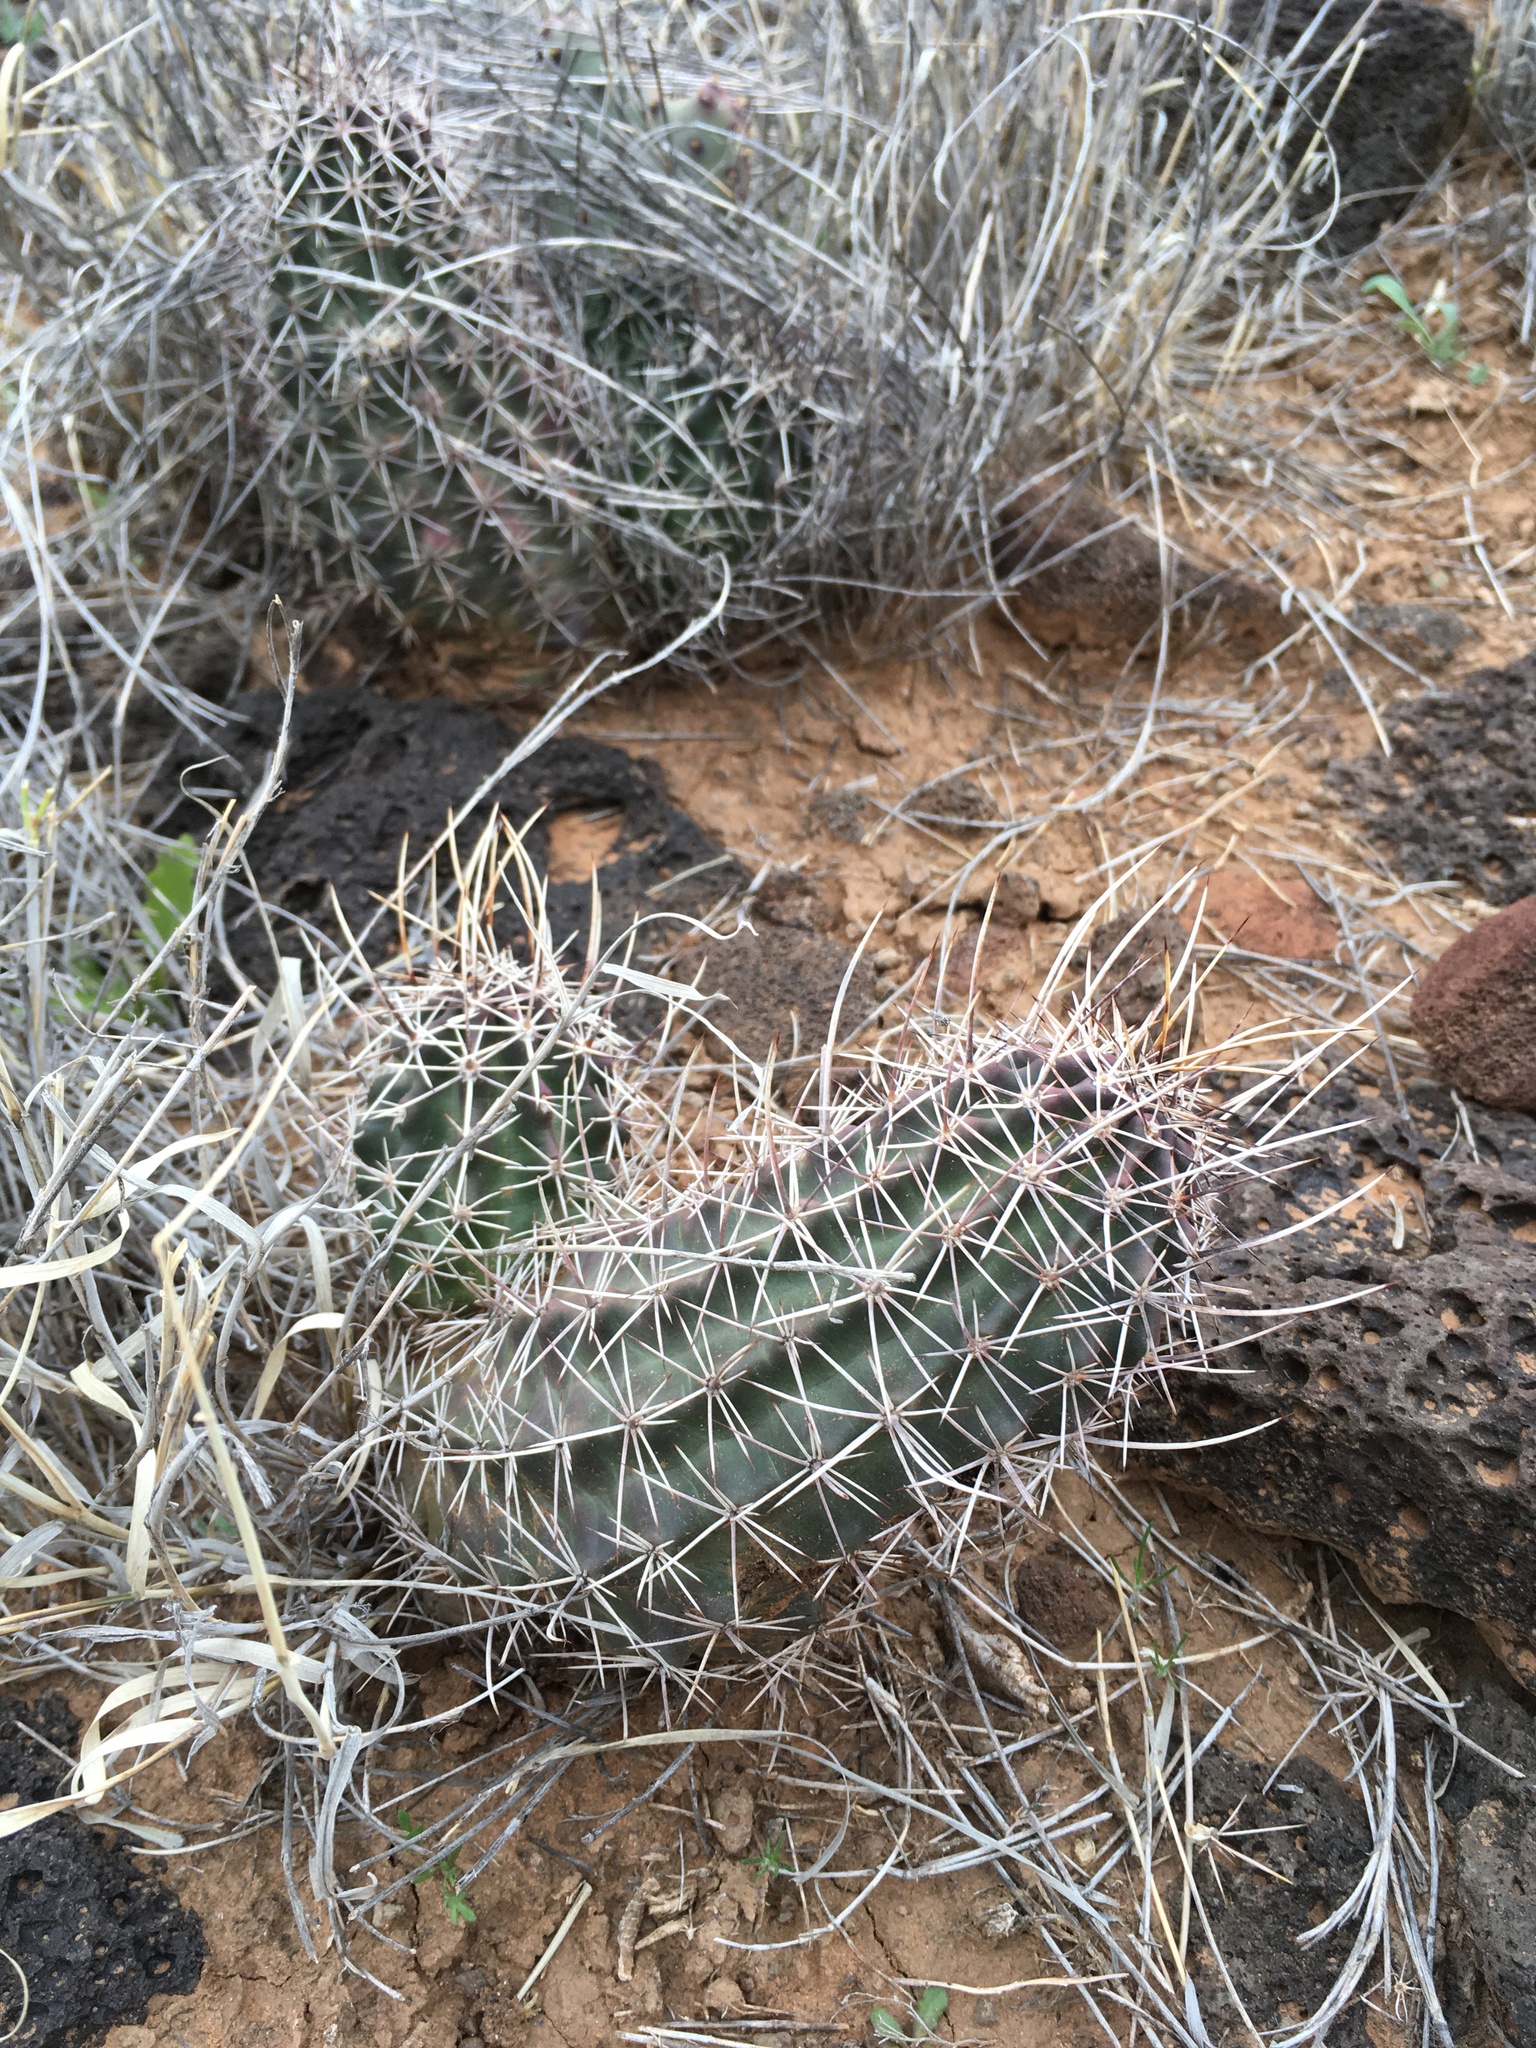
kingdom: Plantae
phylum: Tracheophyta
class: Magnoliopsida
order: Caryophyllales
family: Cactaceae
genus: Echinocereus
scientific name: Echinocereus fendleri
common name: Fendler's hedgehog cactus
